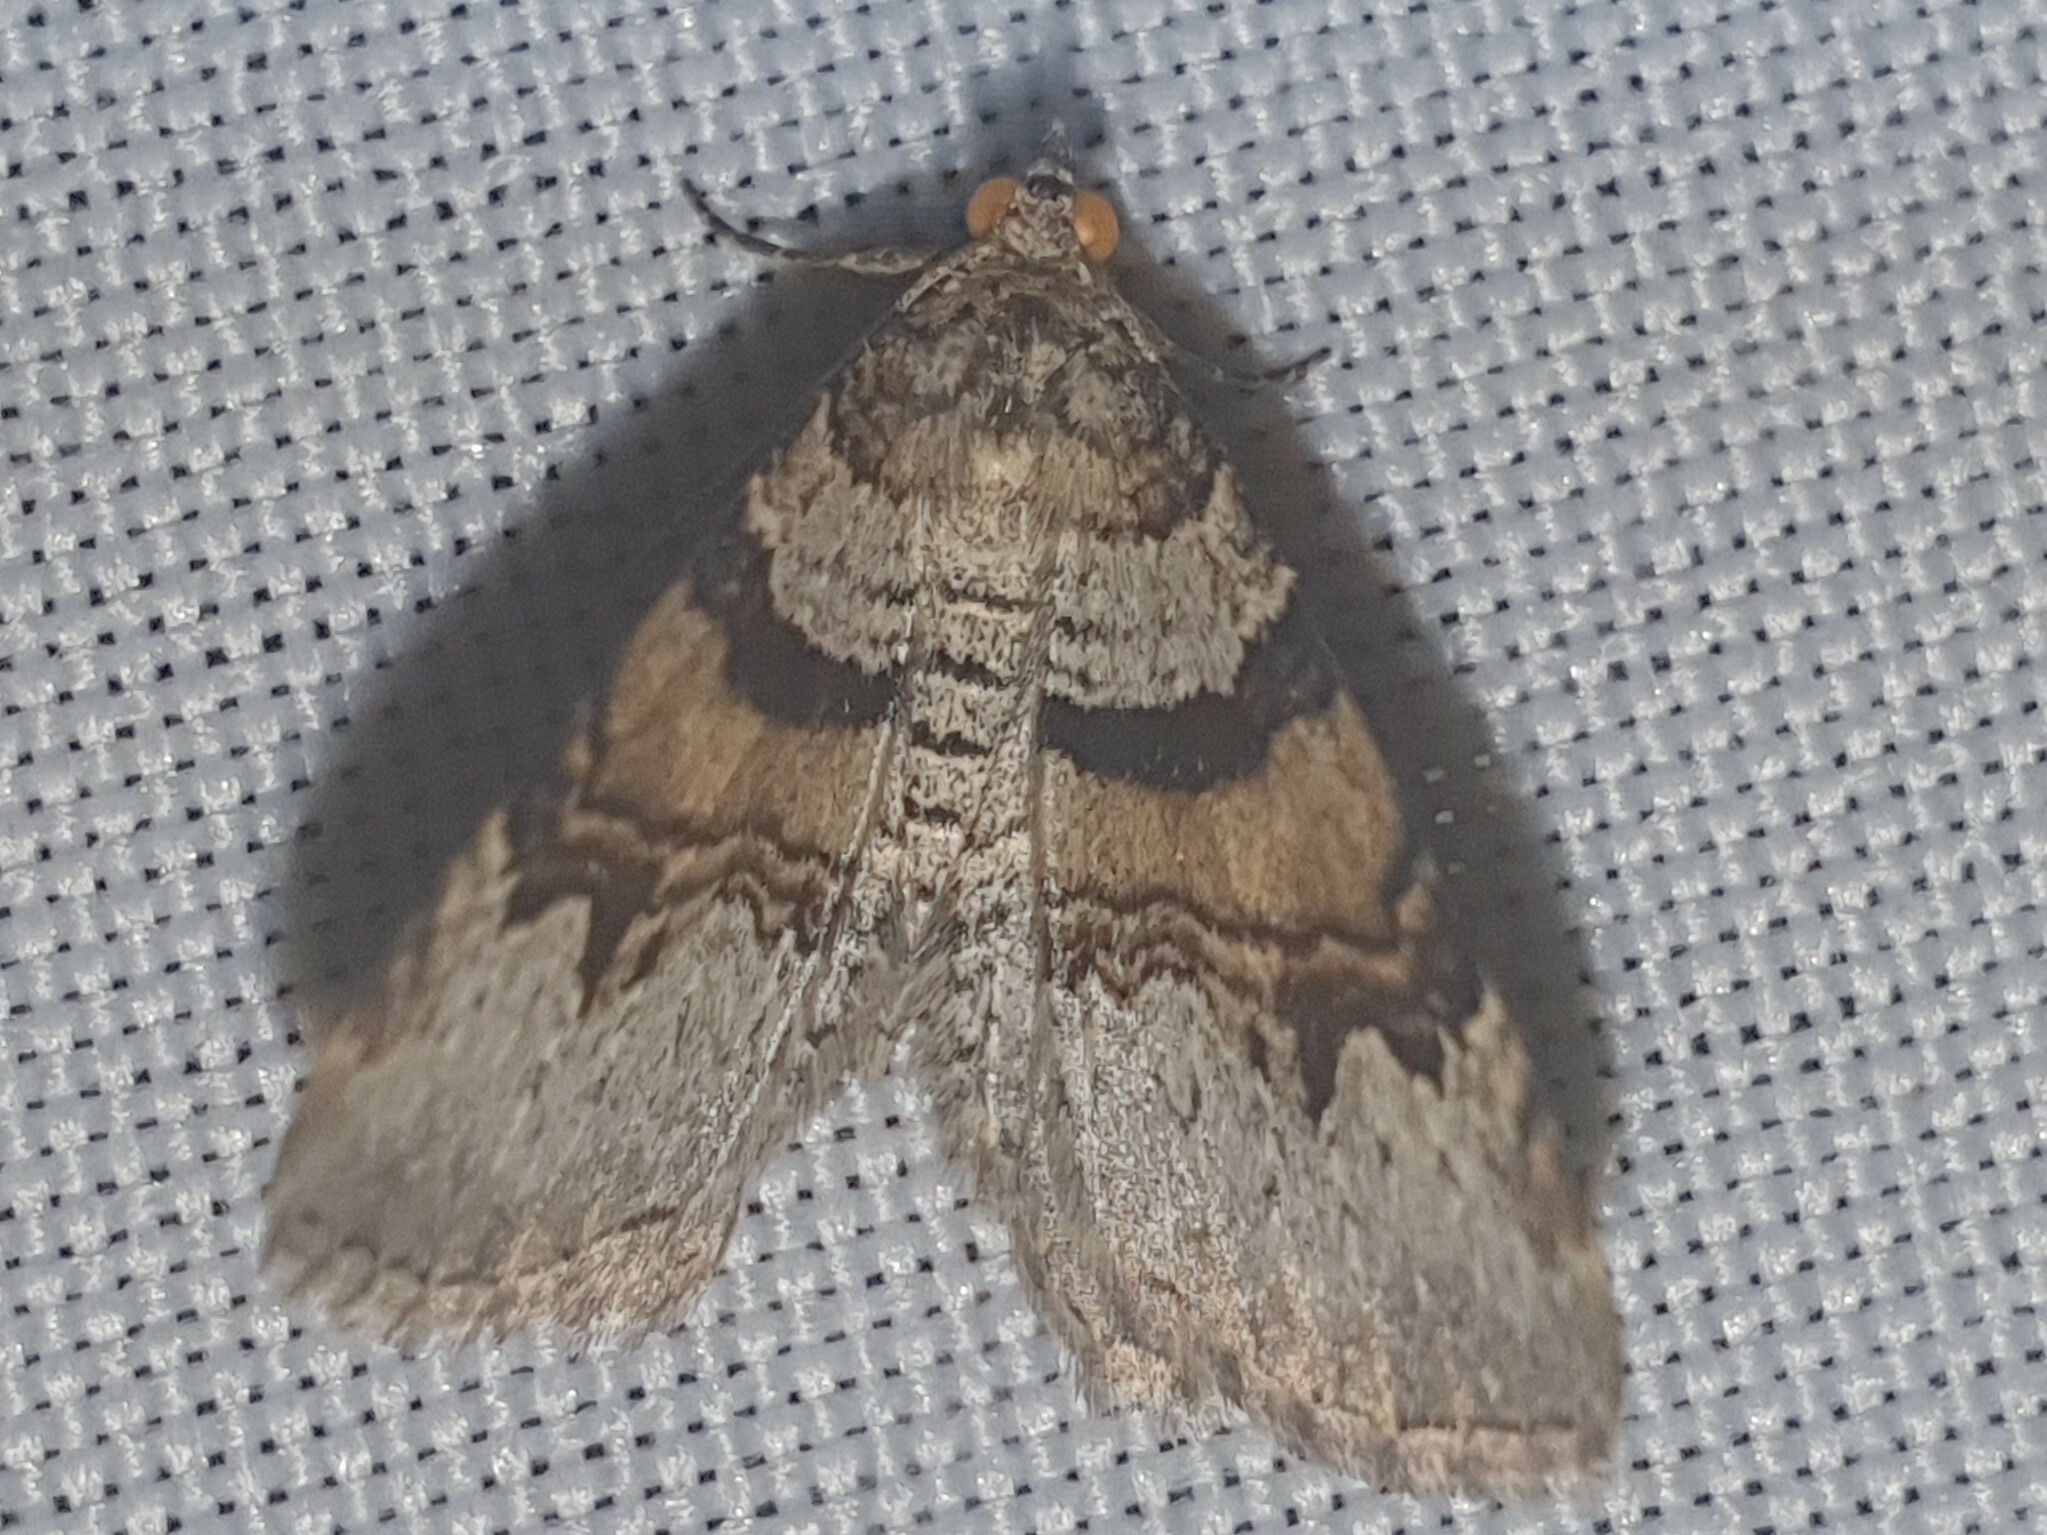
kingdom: Animalia
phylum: Arthropoda
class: Insecta
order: Lepidoptera
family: Geometridae
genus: Xanthorhoe
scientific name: Xanthorhoe designata
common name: Flame carpet
